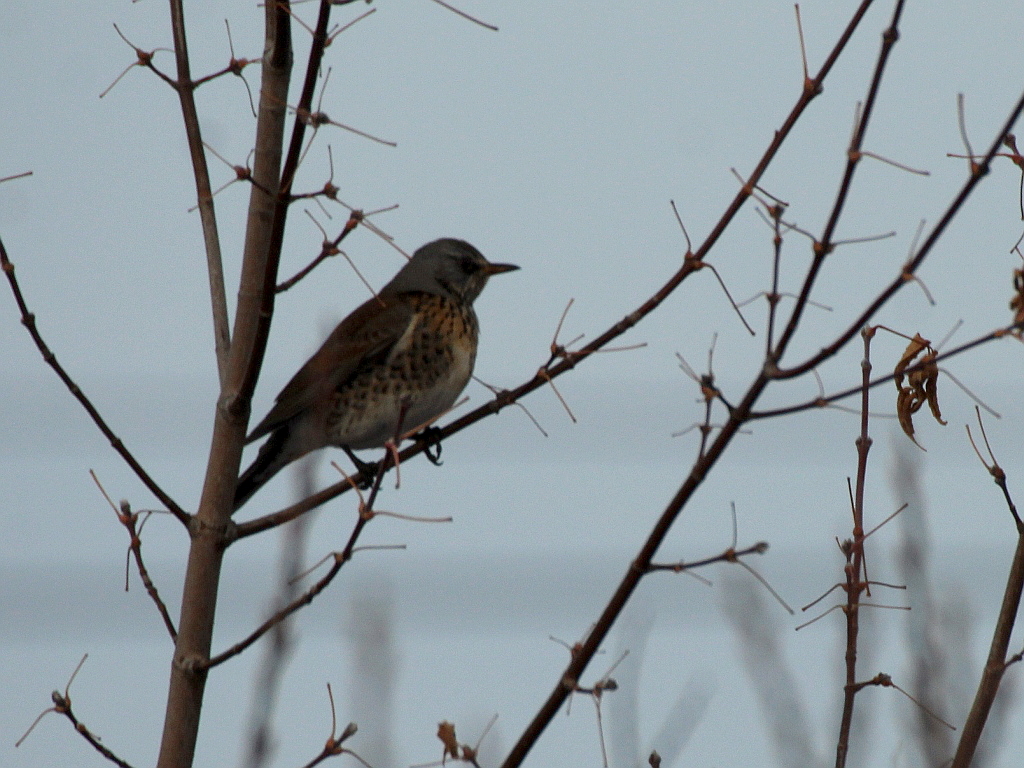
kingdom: Animalia
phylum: Chordata
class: Aves
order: Passeriformes
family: Turdidae
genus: Turdus
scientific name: Turdus pilaris
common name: Fieldfare
